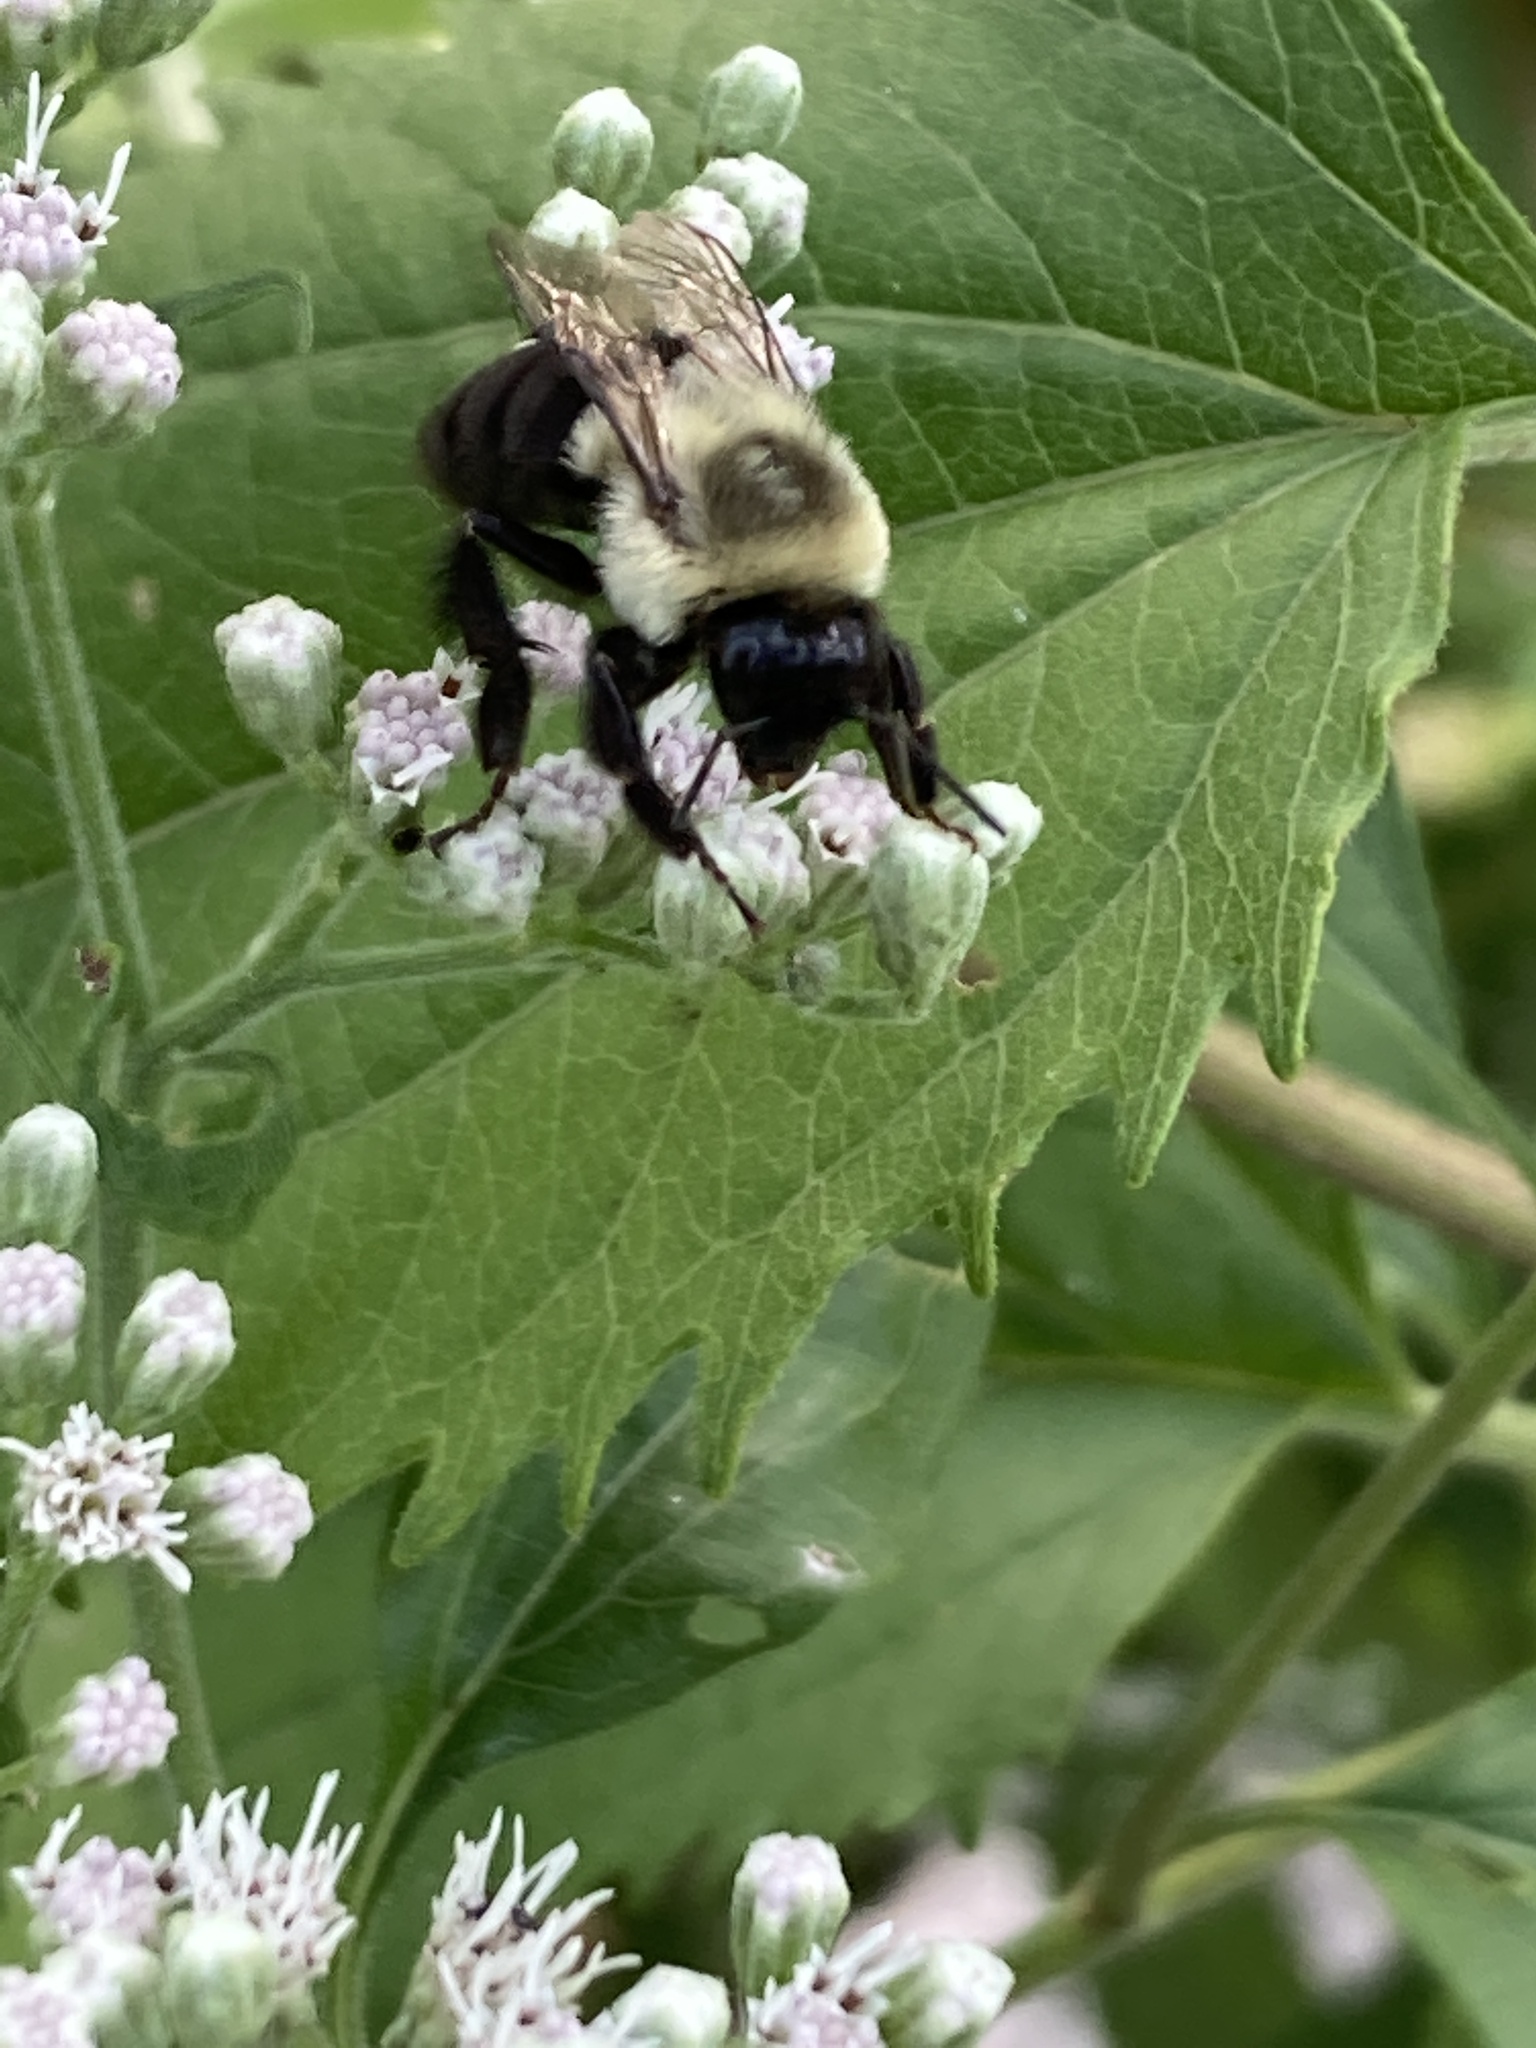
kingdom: Animalia
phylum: Arthropoda
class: Insecta
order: Hymenoptera
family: Apidae
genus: Bombus
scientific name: Bombus impatiens
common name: Common eastern bumble bee
